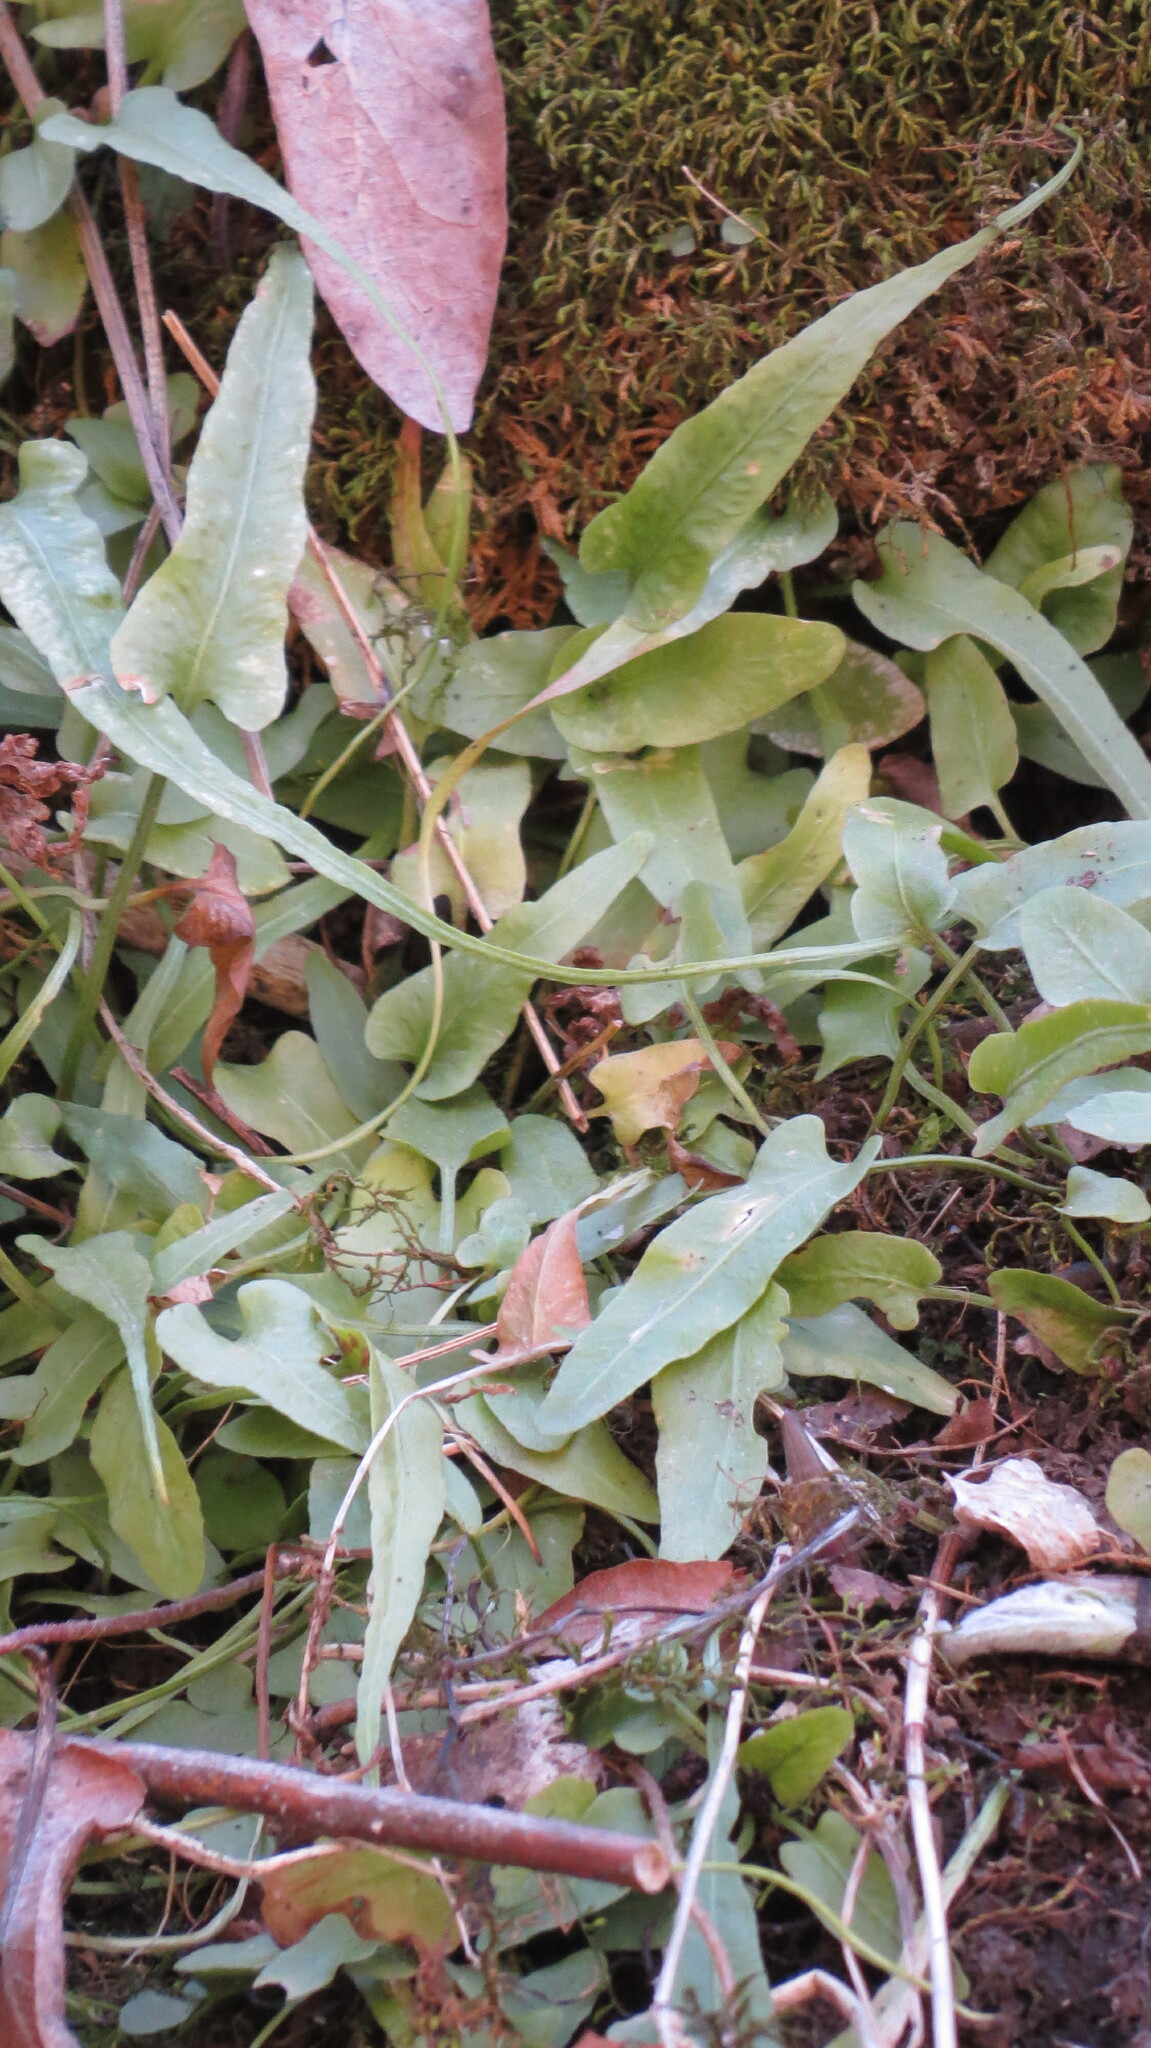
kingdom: Plantae
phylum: Tracheophyta
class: Polypodiopsida
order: Polypodiales
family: Aspleniaceae
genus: Asplenium
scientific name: Asplenium rhizophyllum
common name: Walking fern
